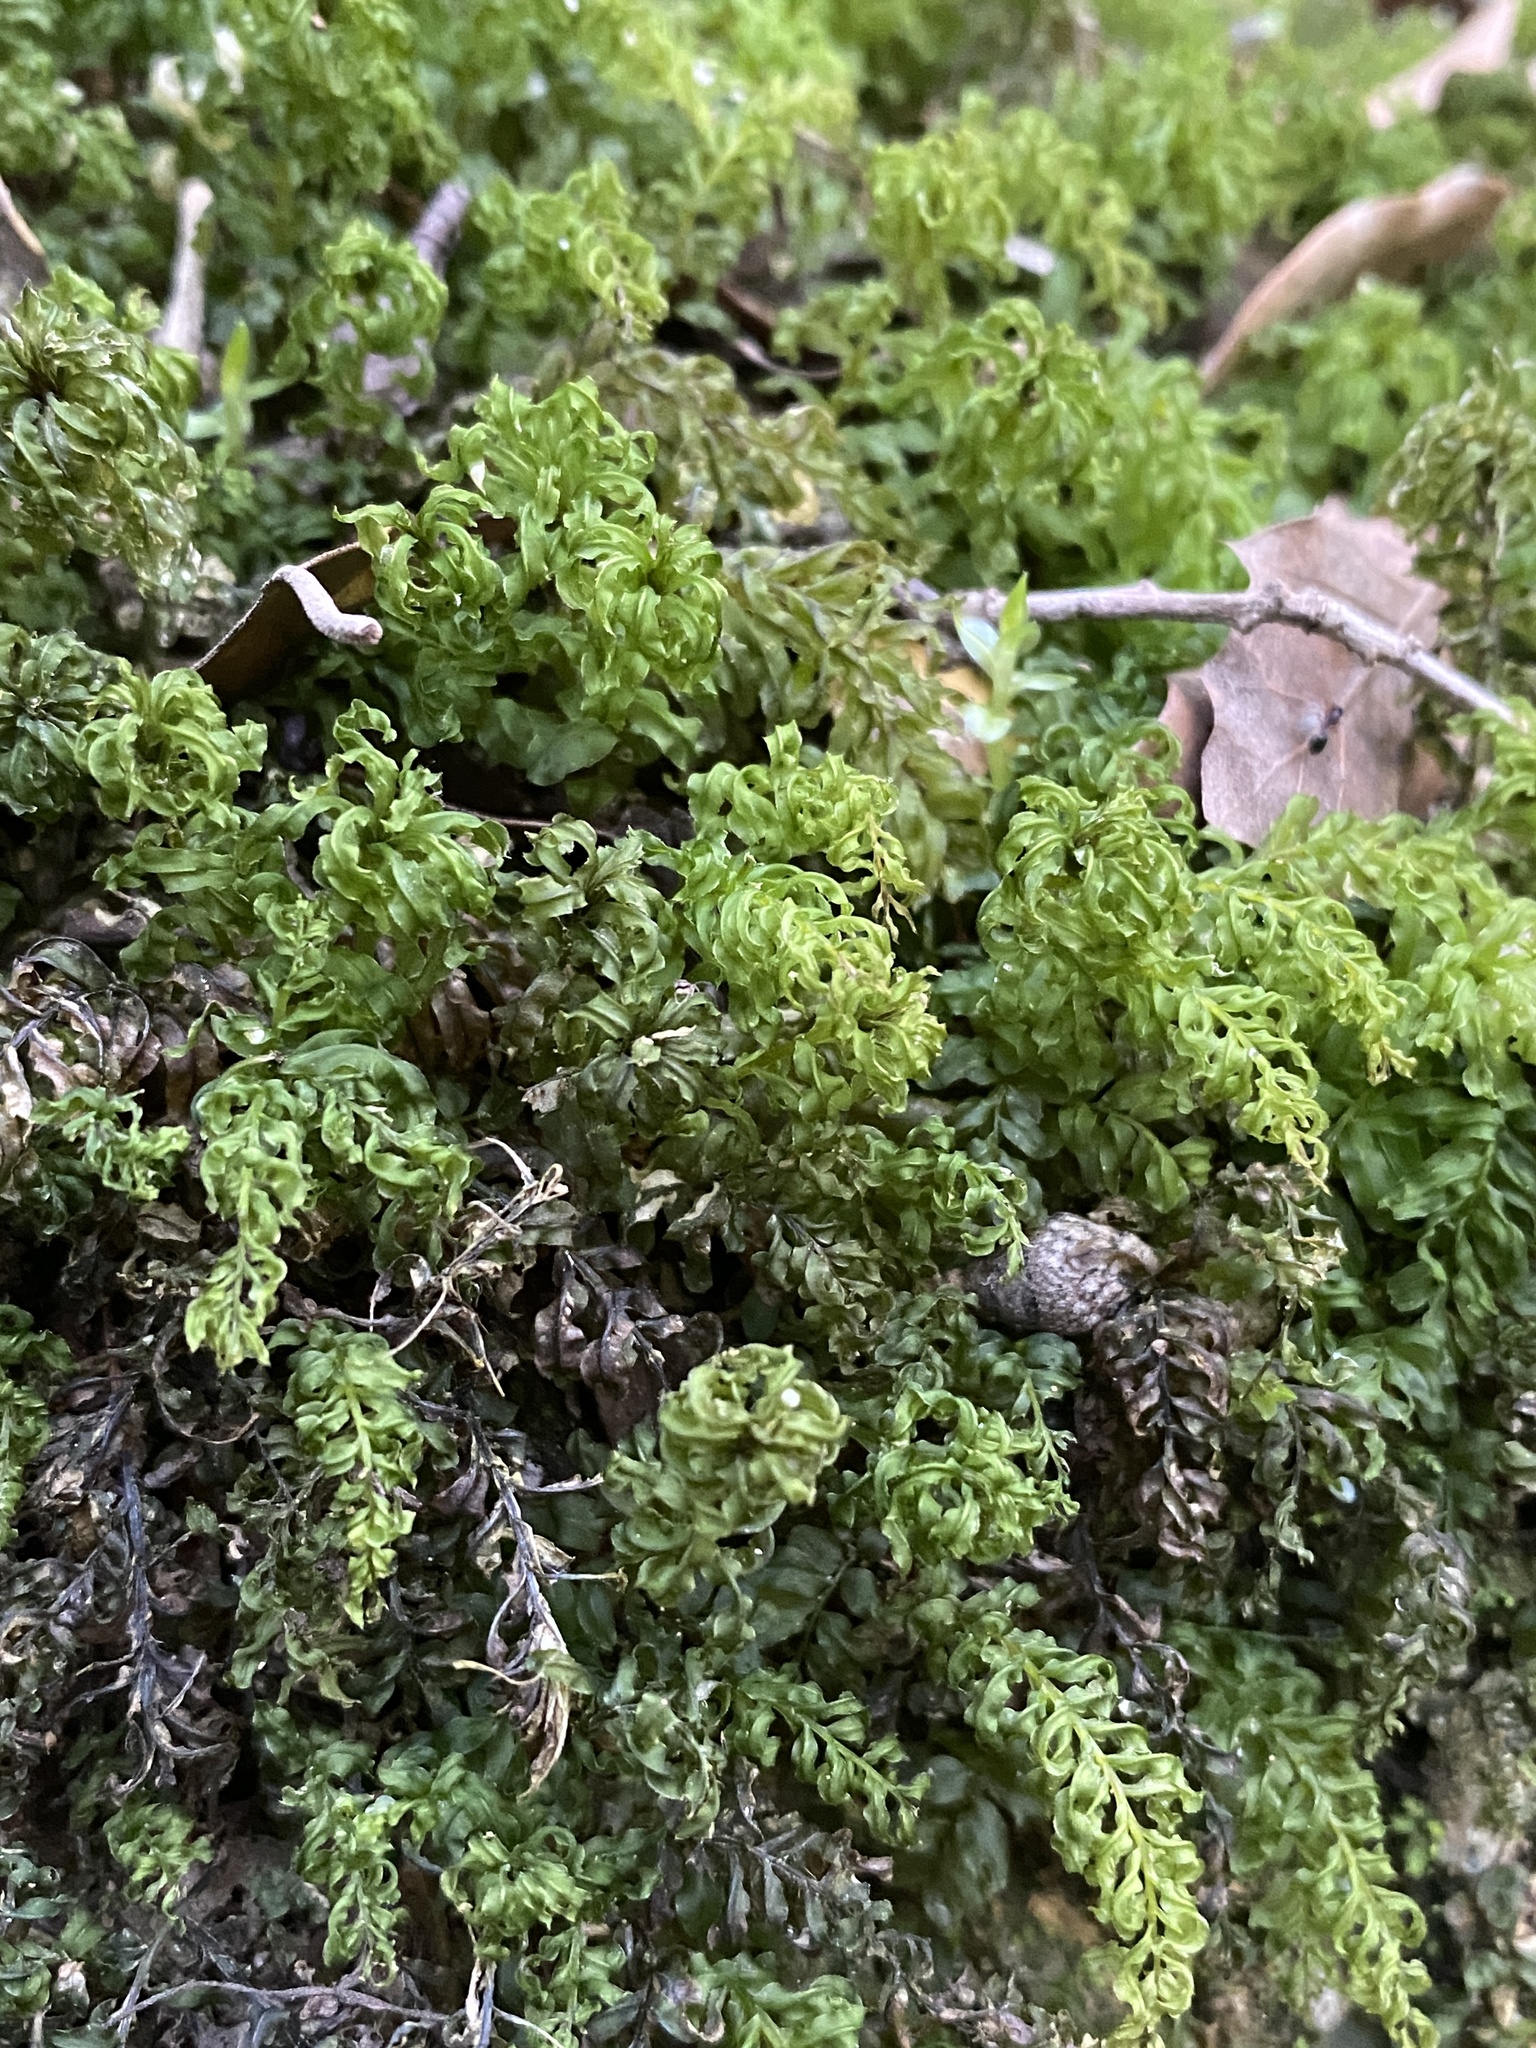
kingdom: Plantae
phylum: Bryophyta
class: Bryopsida
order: Bryales
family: Mniaceae
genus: Plagiomnium
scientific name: Plagiomnium undulatum
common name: Hart's-tongue thyme-moss
